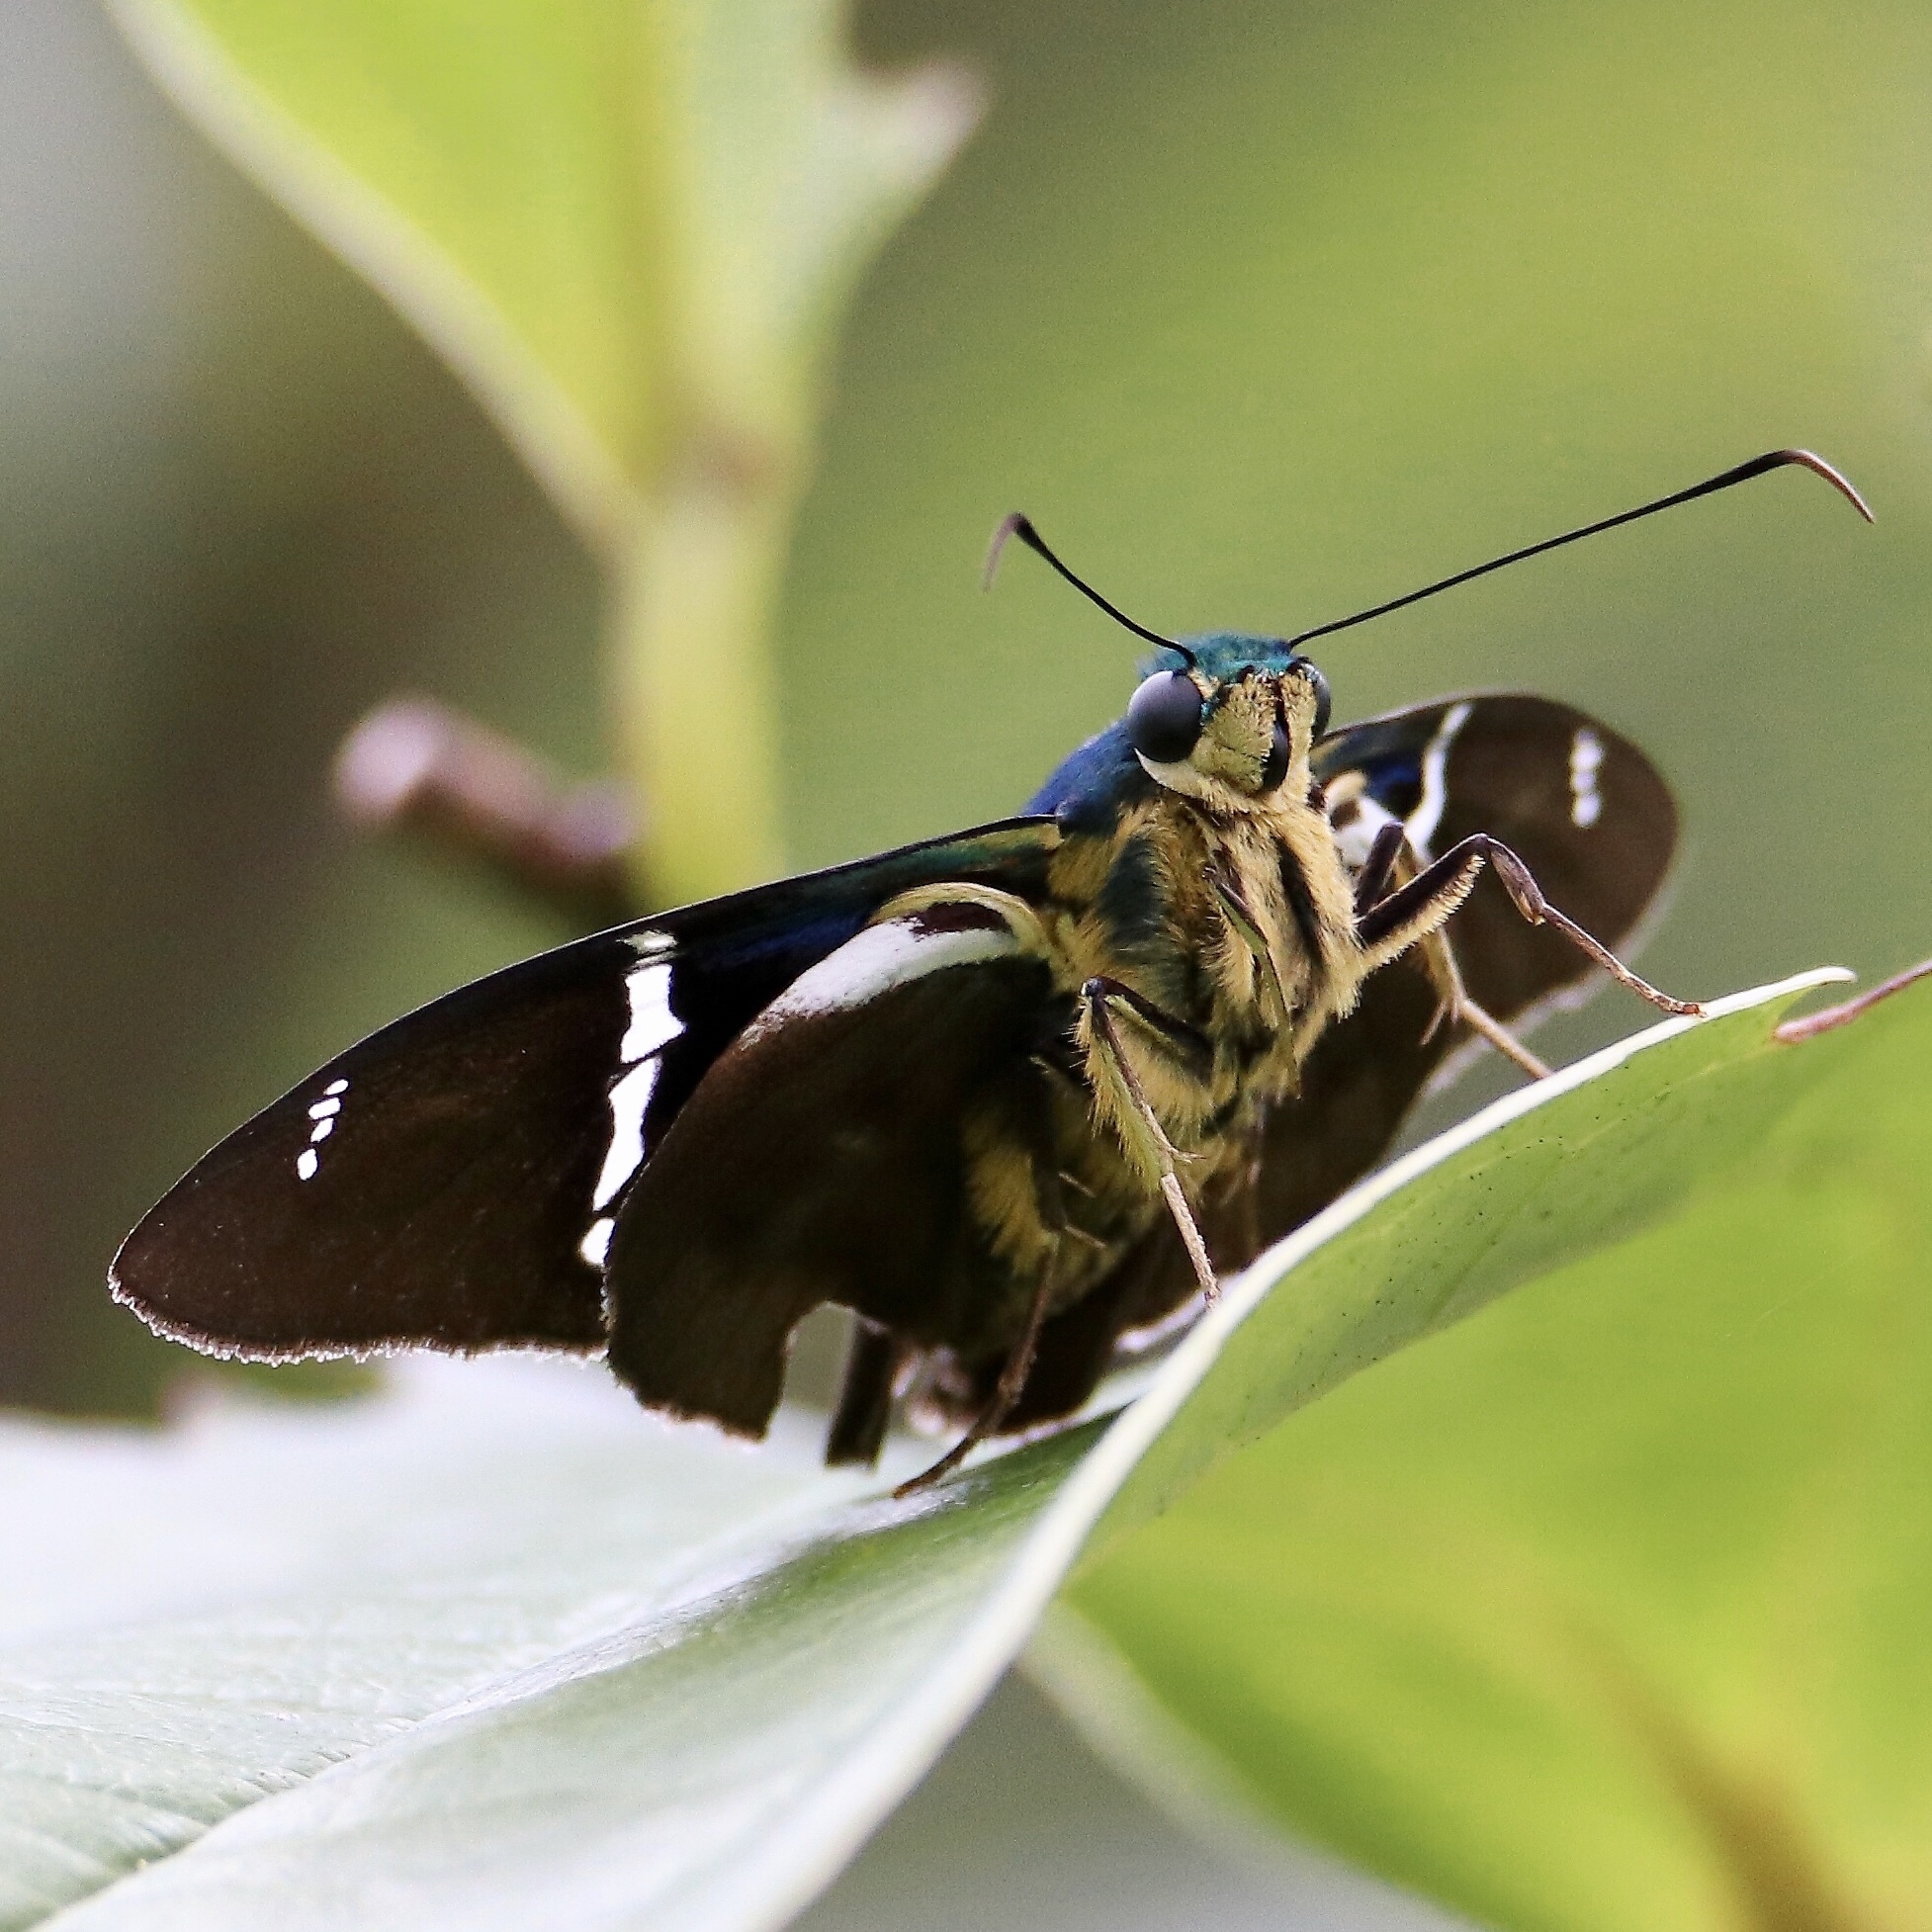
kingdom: Animalia
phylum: Arthropoda
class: Insecta
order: Lepidoptera
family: Hesperiidae
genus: Astraptes
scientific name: Astraptes fulgerator
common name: Two-barred flasher
